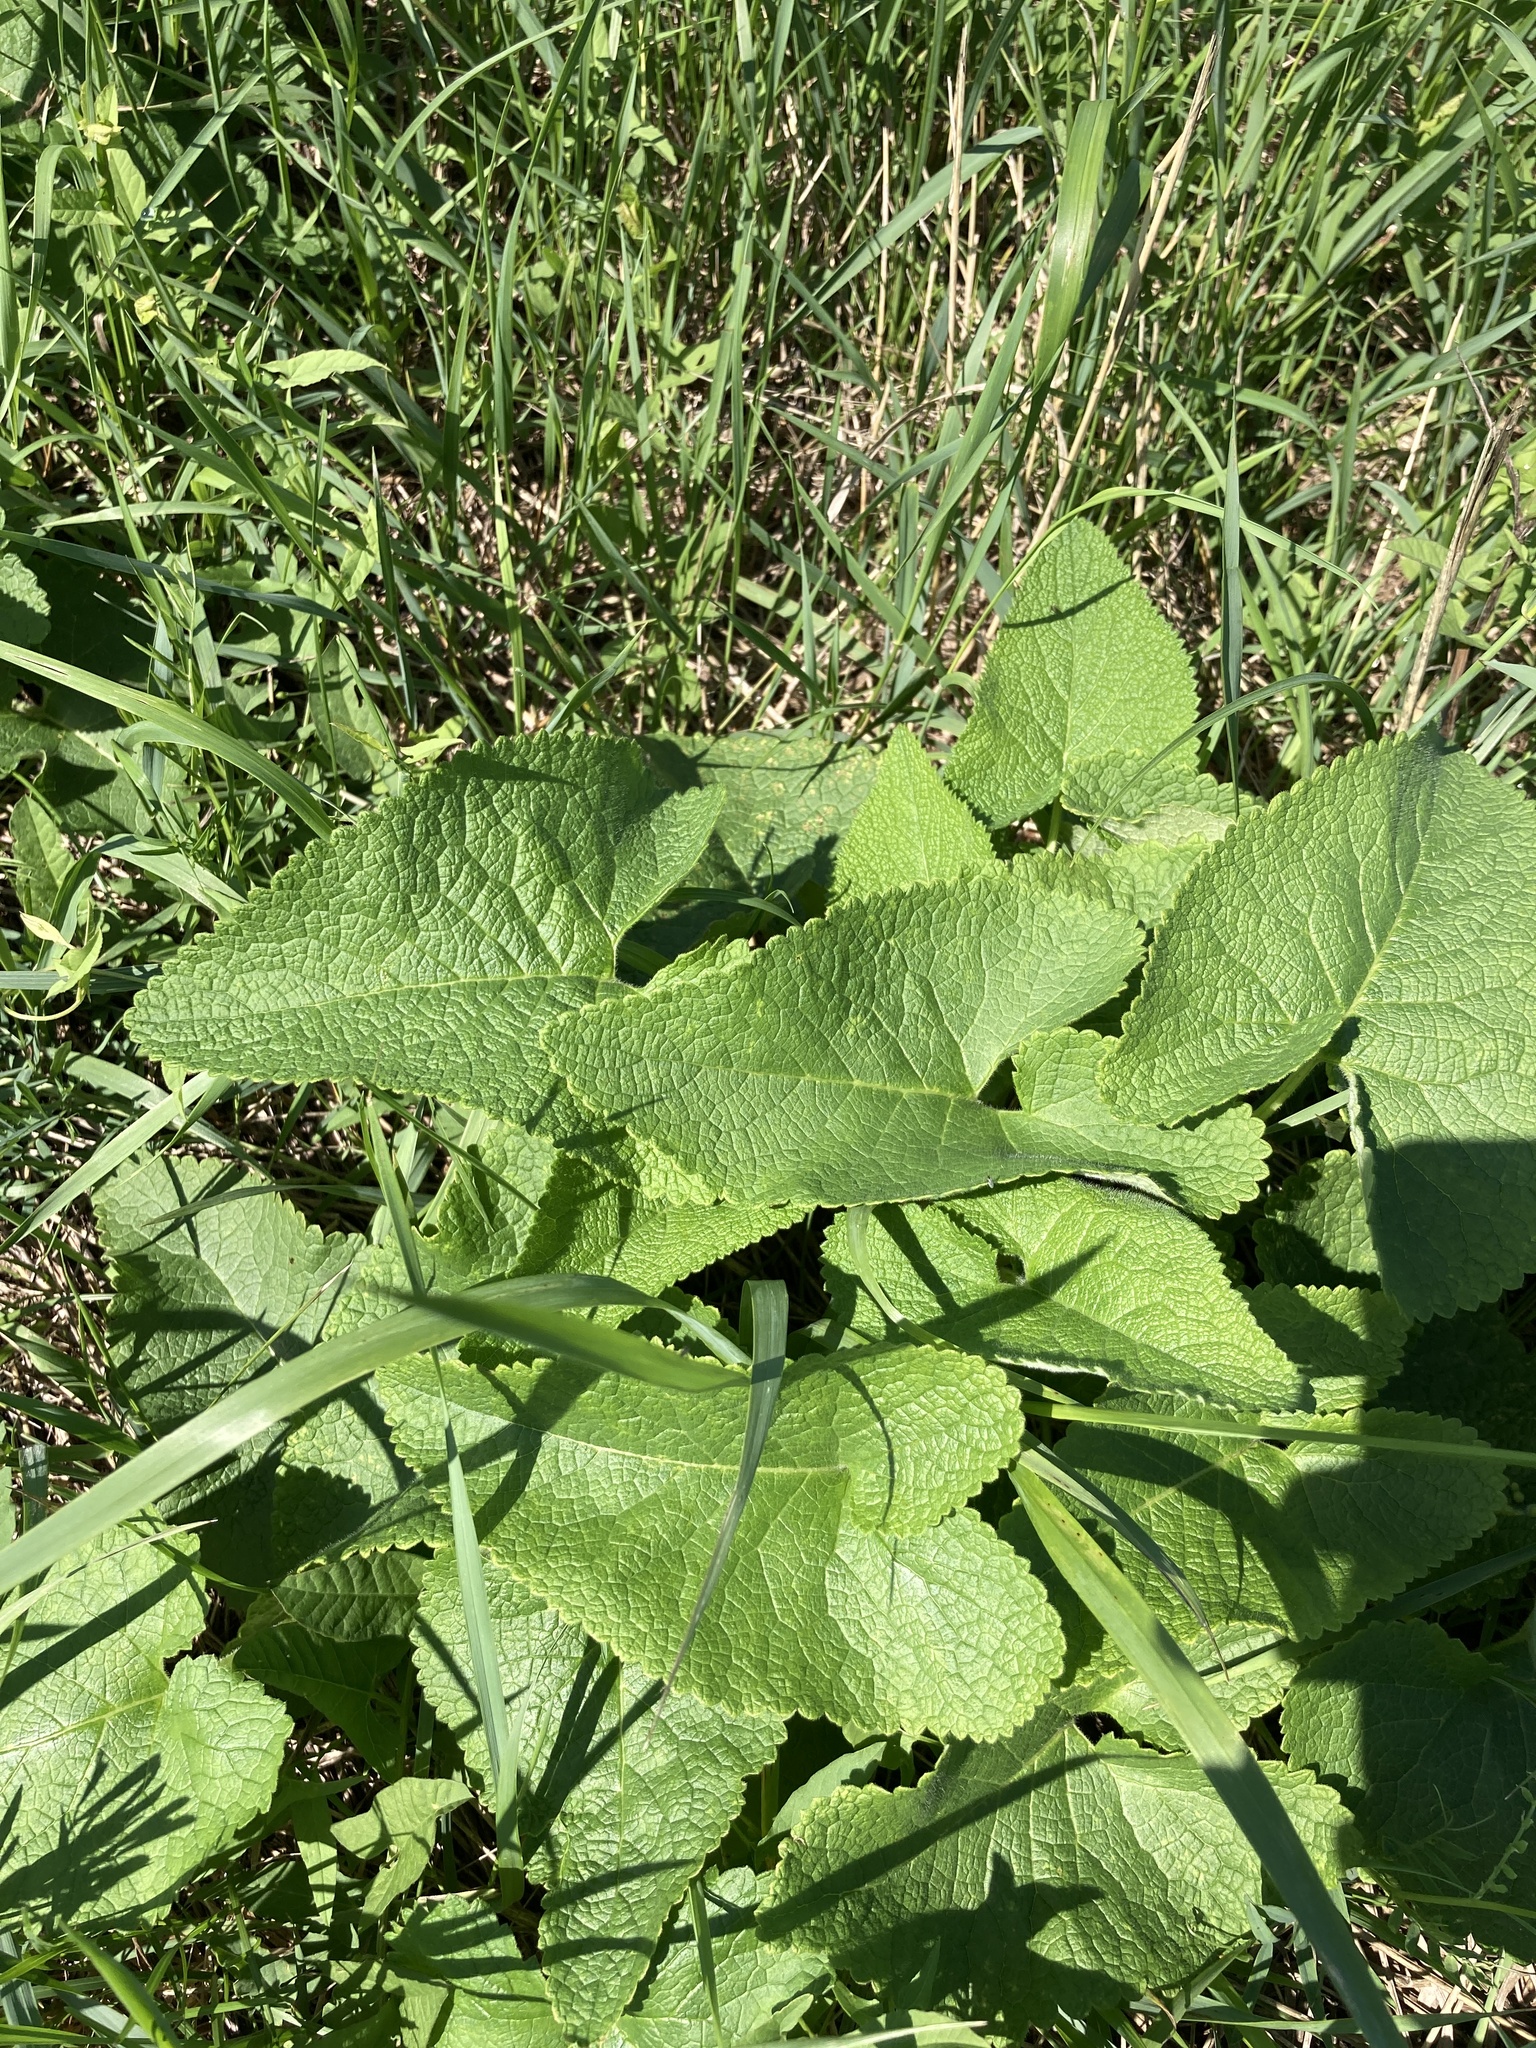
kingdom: Plantae
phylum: Tracheophyta
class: Magnoliopsida
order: Lamiales
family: Lamiaceae
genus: Phlomoides
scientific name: Phlomoides tuberosa
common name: Tuberous jerusalem sage
